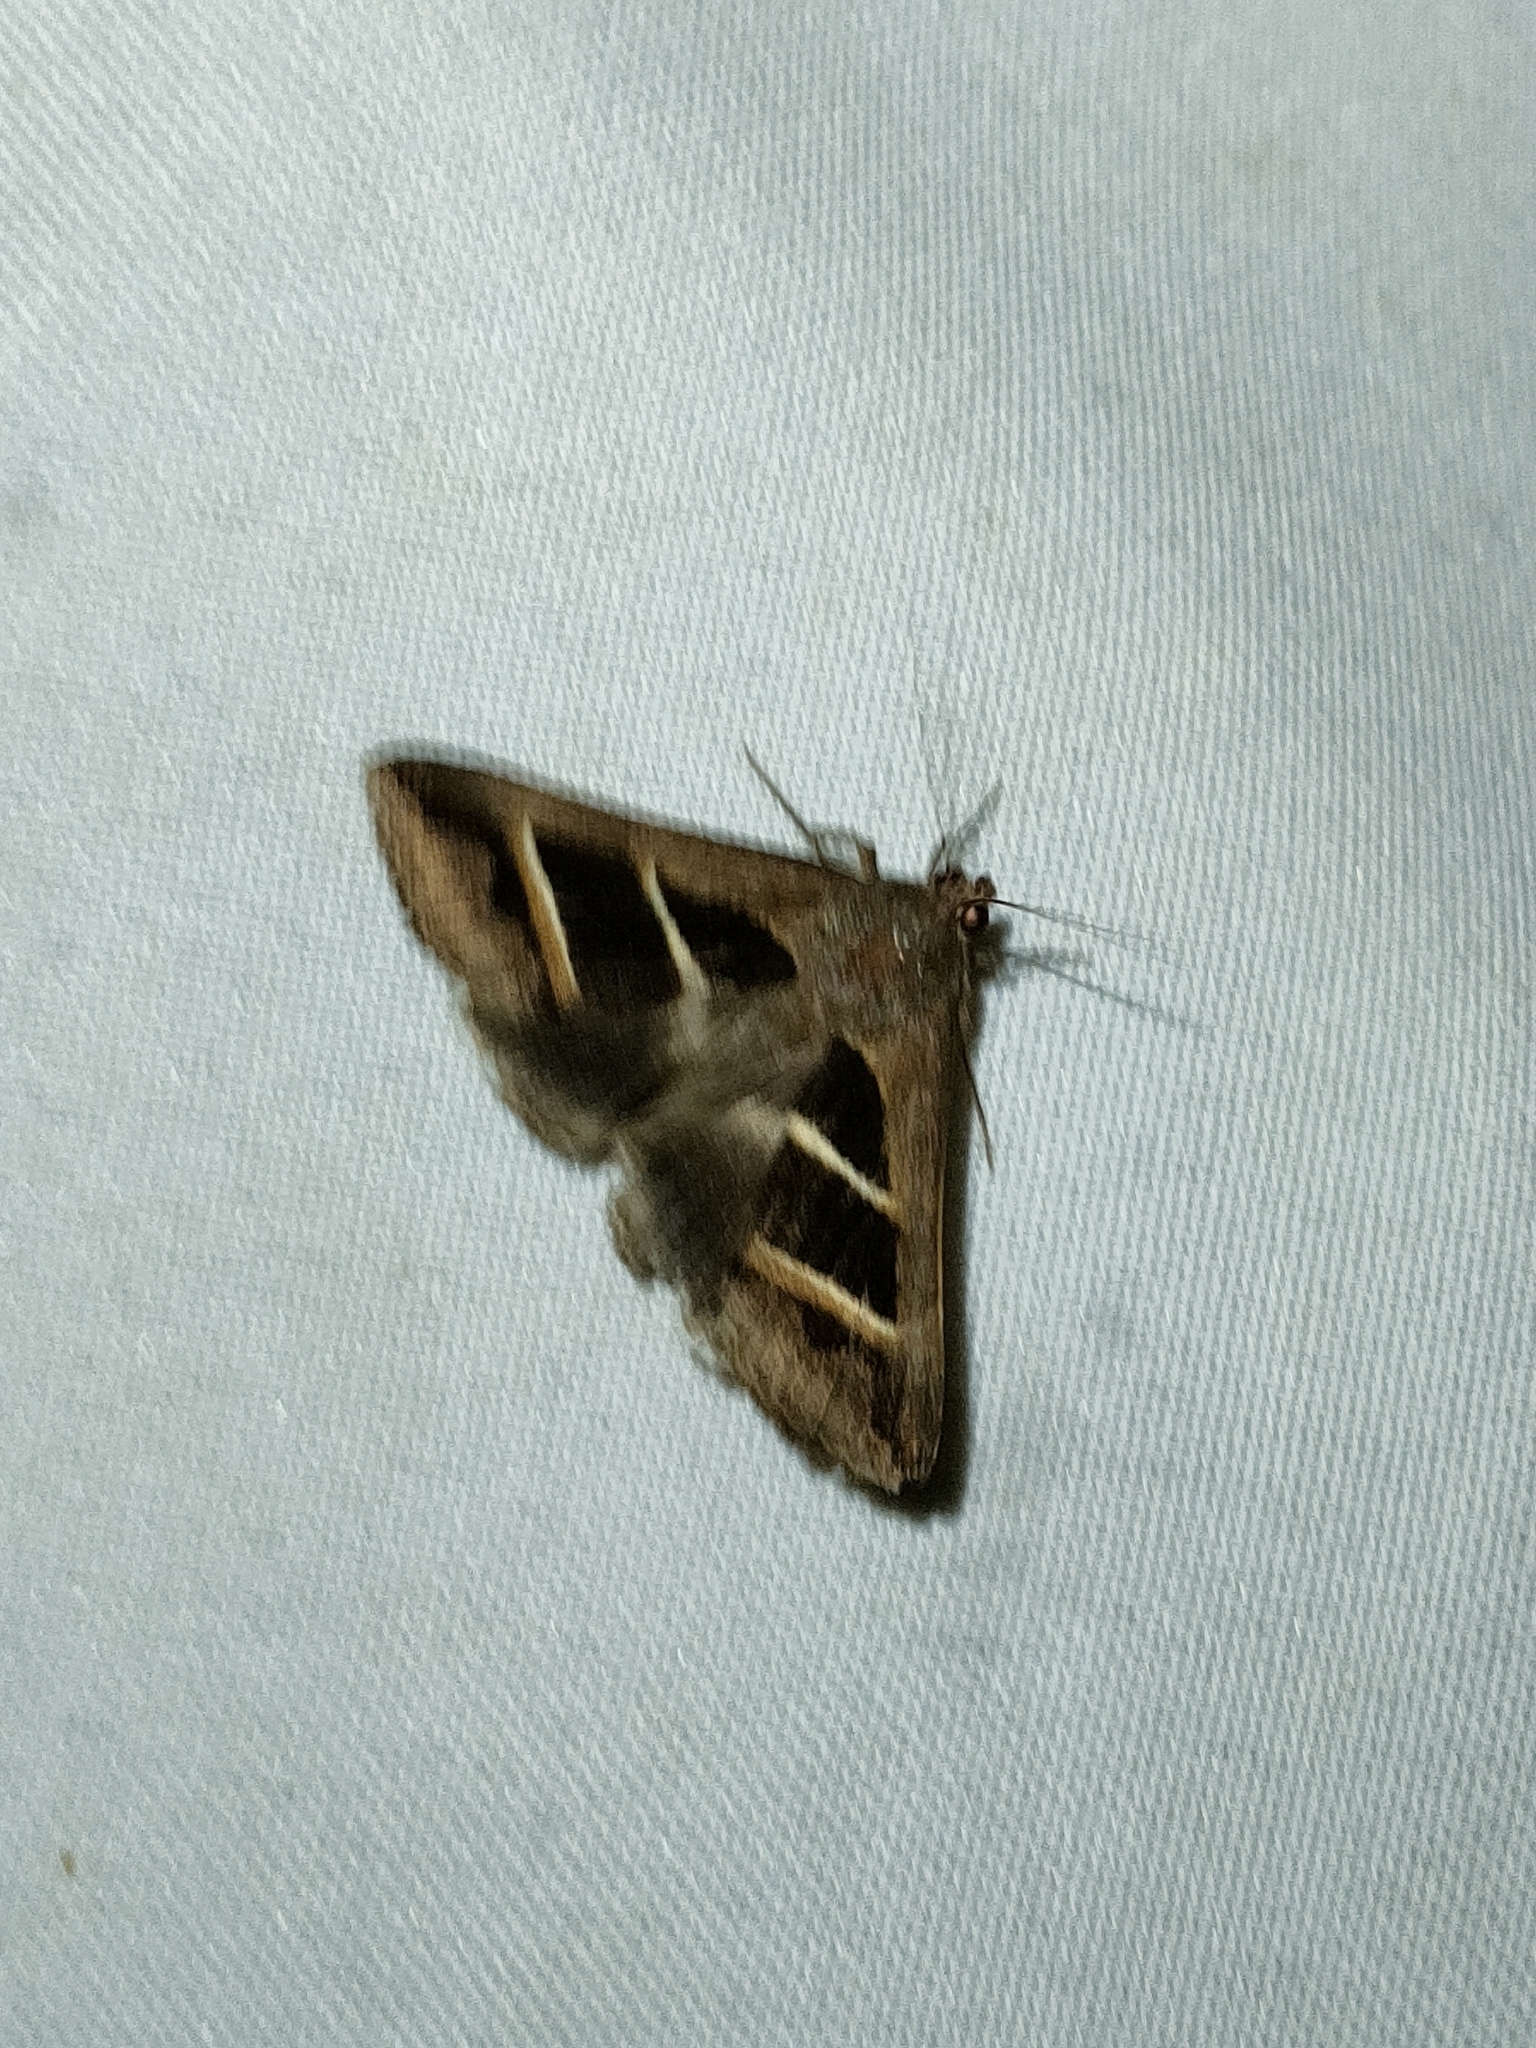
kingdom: Animalia
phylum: Arthropoda
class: Insecta
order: Lepidoptera
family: Erebidae
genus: Grammodes
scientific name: Grammodes bifasciata
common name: Parallel lines
